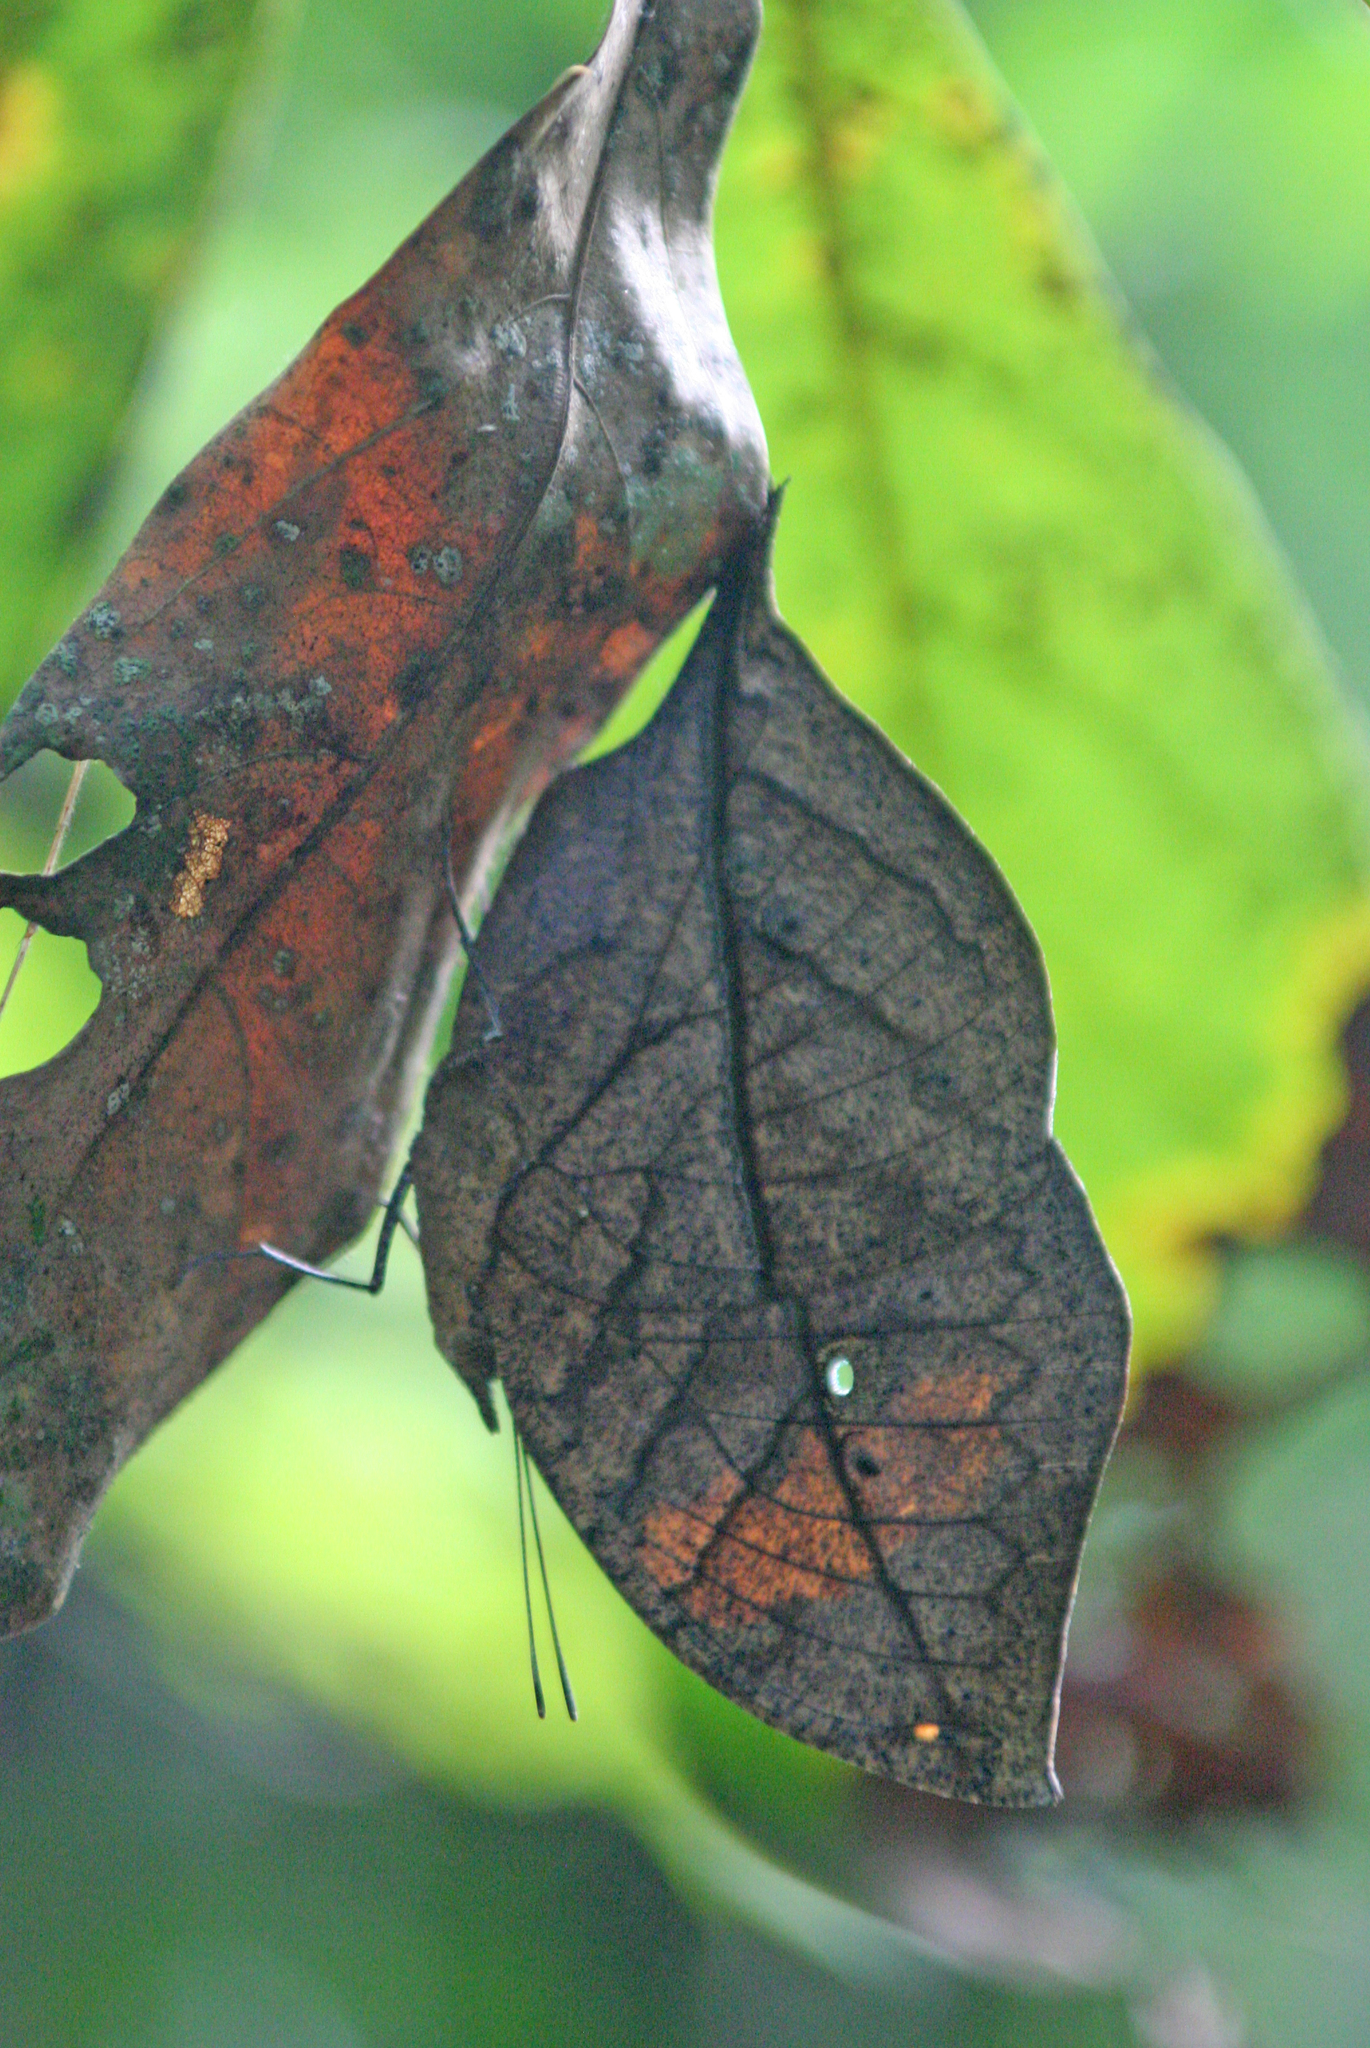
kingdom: Animalia
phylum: Arthropoda
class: Insecta
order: Lepidoptera
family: Nymphalidae
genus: Kallima
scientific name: Kallima inachus
